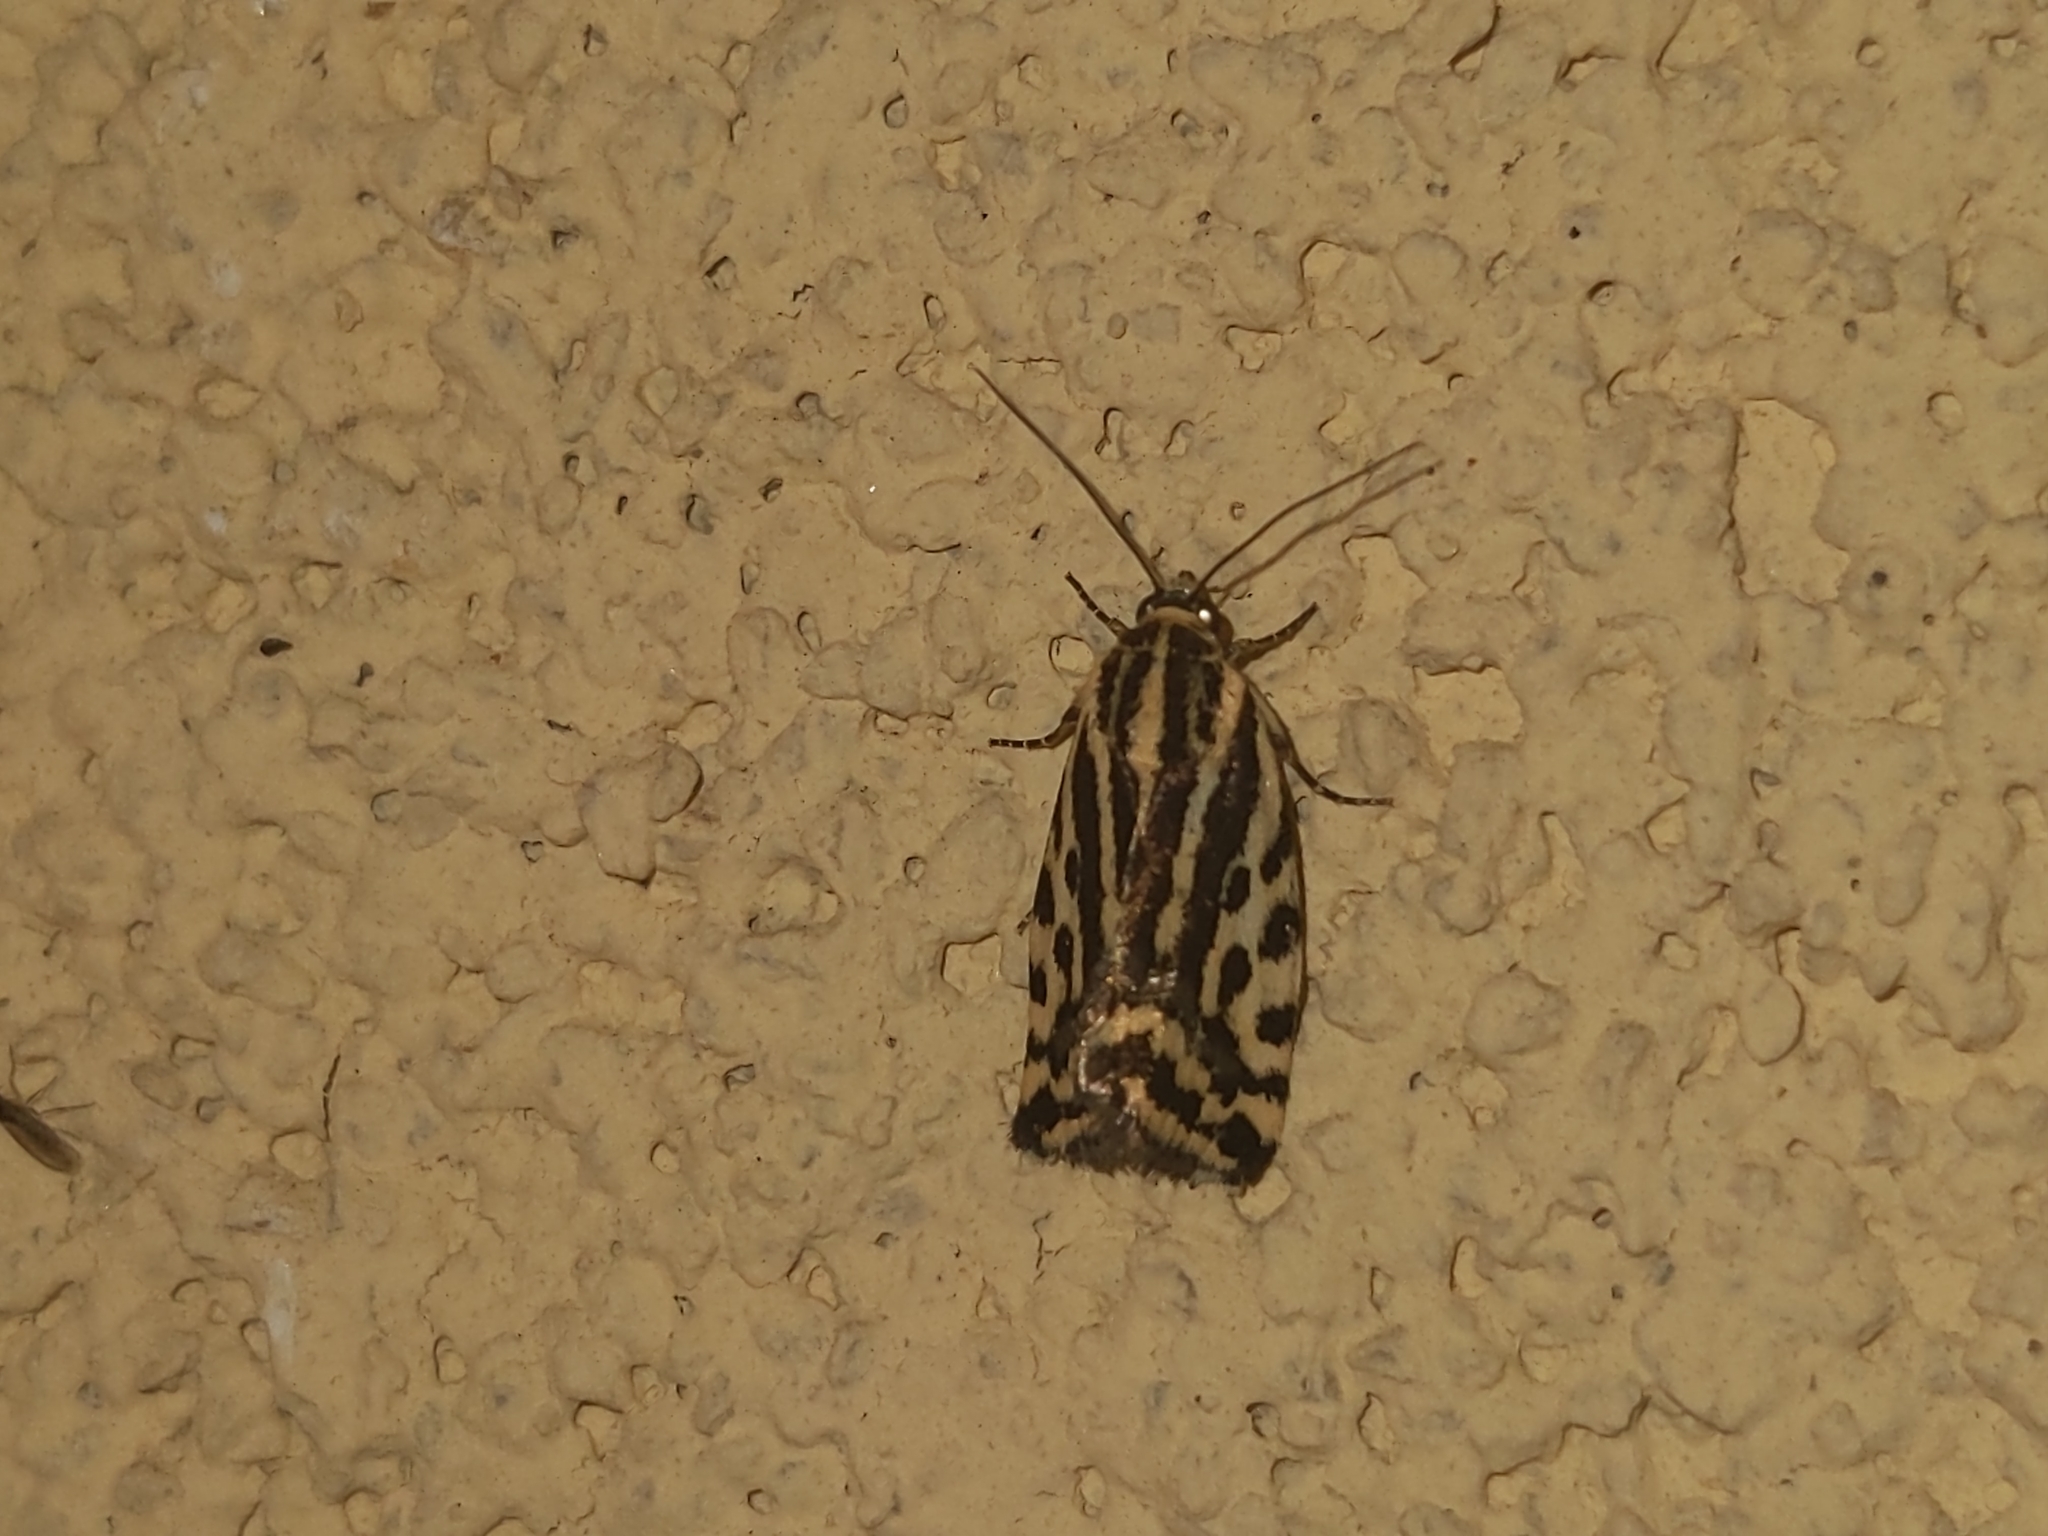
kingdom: Animalia
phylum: Arthropoda
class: Insecta
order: Lepidoptera
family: Noctuidae
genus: Acontia
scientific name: Acontia trabealis
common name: Spotted sulphur
